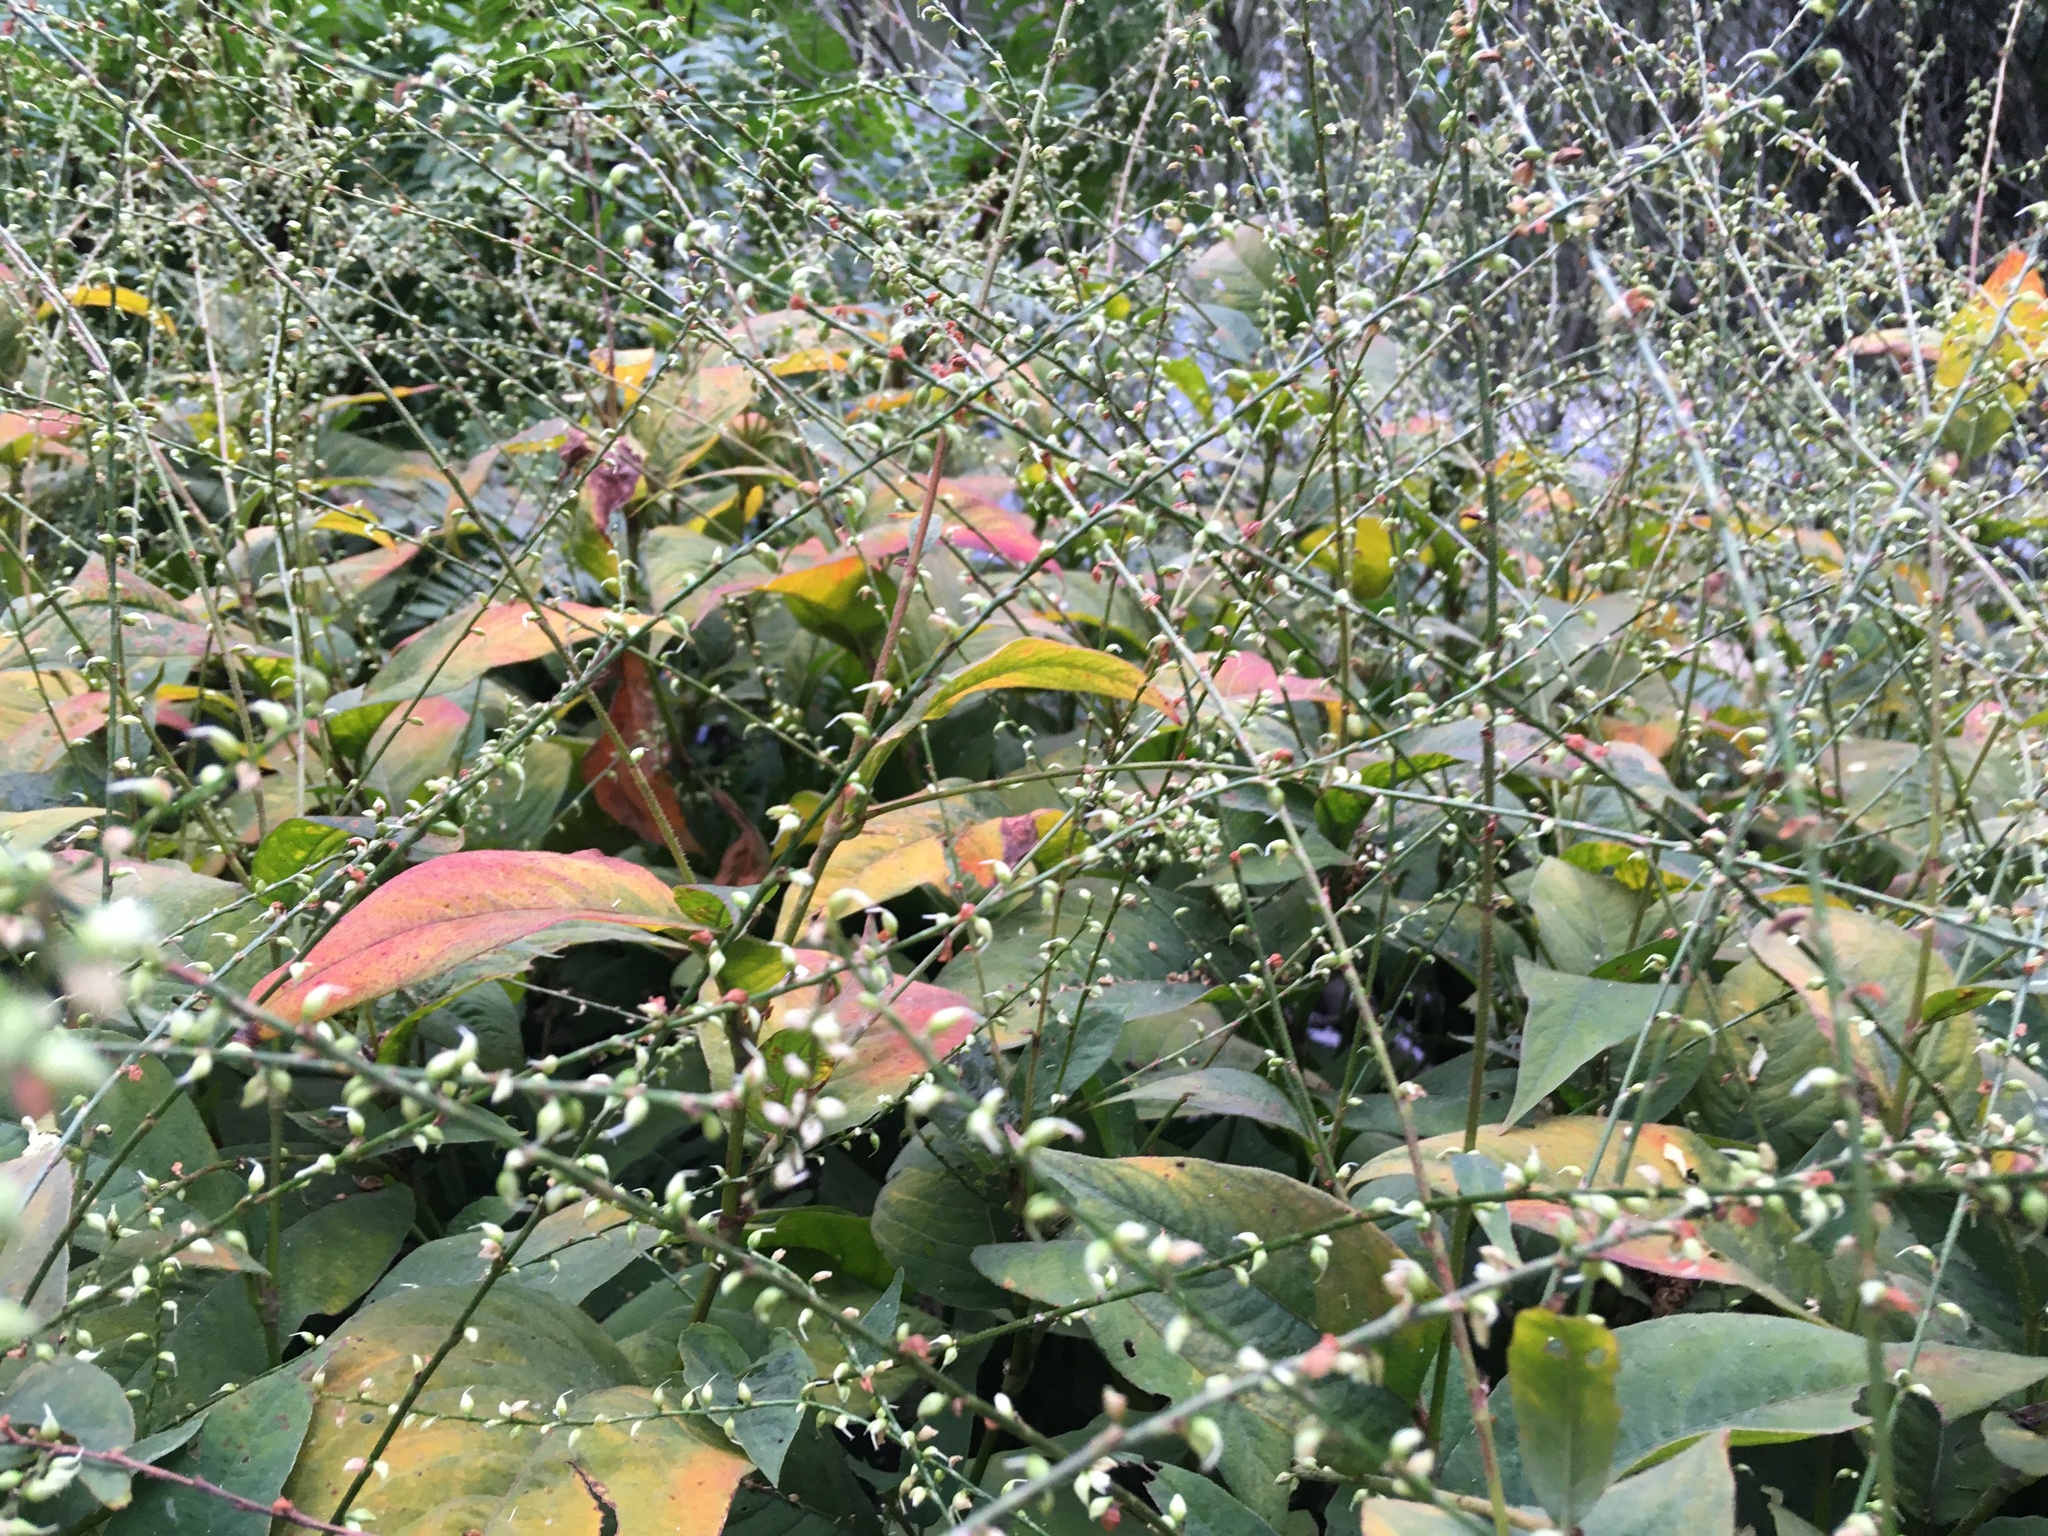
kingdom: Plantae
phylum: Tracheophyta
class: Magnoliopsida
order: Caryophyllales
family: Polygonaceae
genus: Persicaria
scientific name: Persicaria virginiana
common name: Jumpseed
